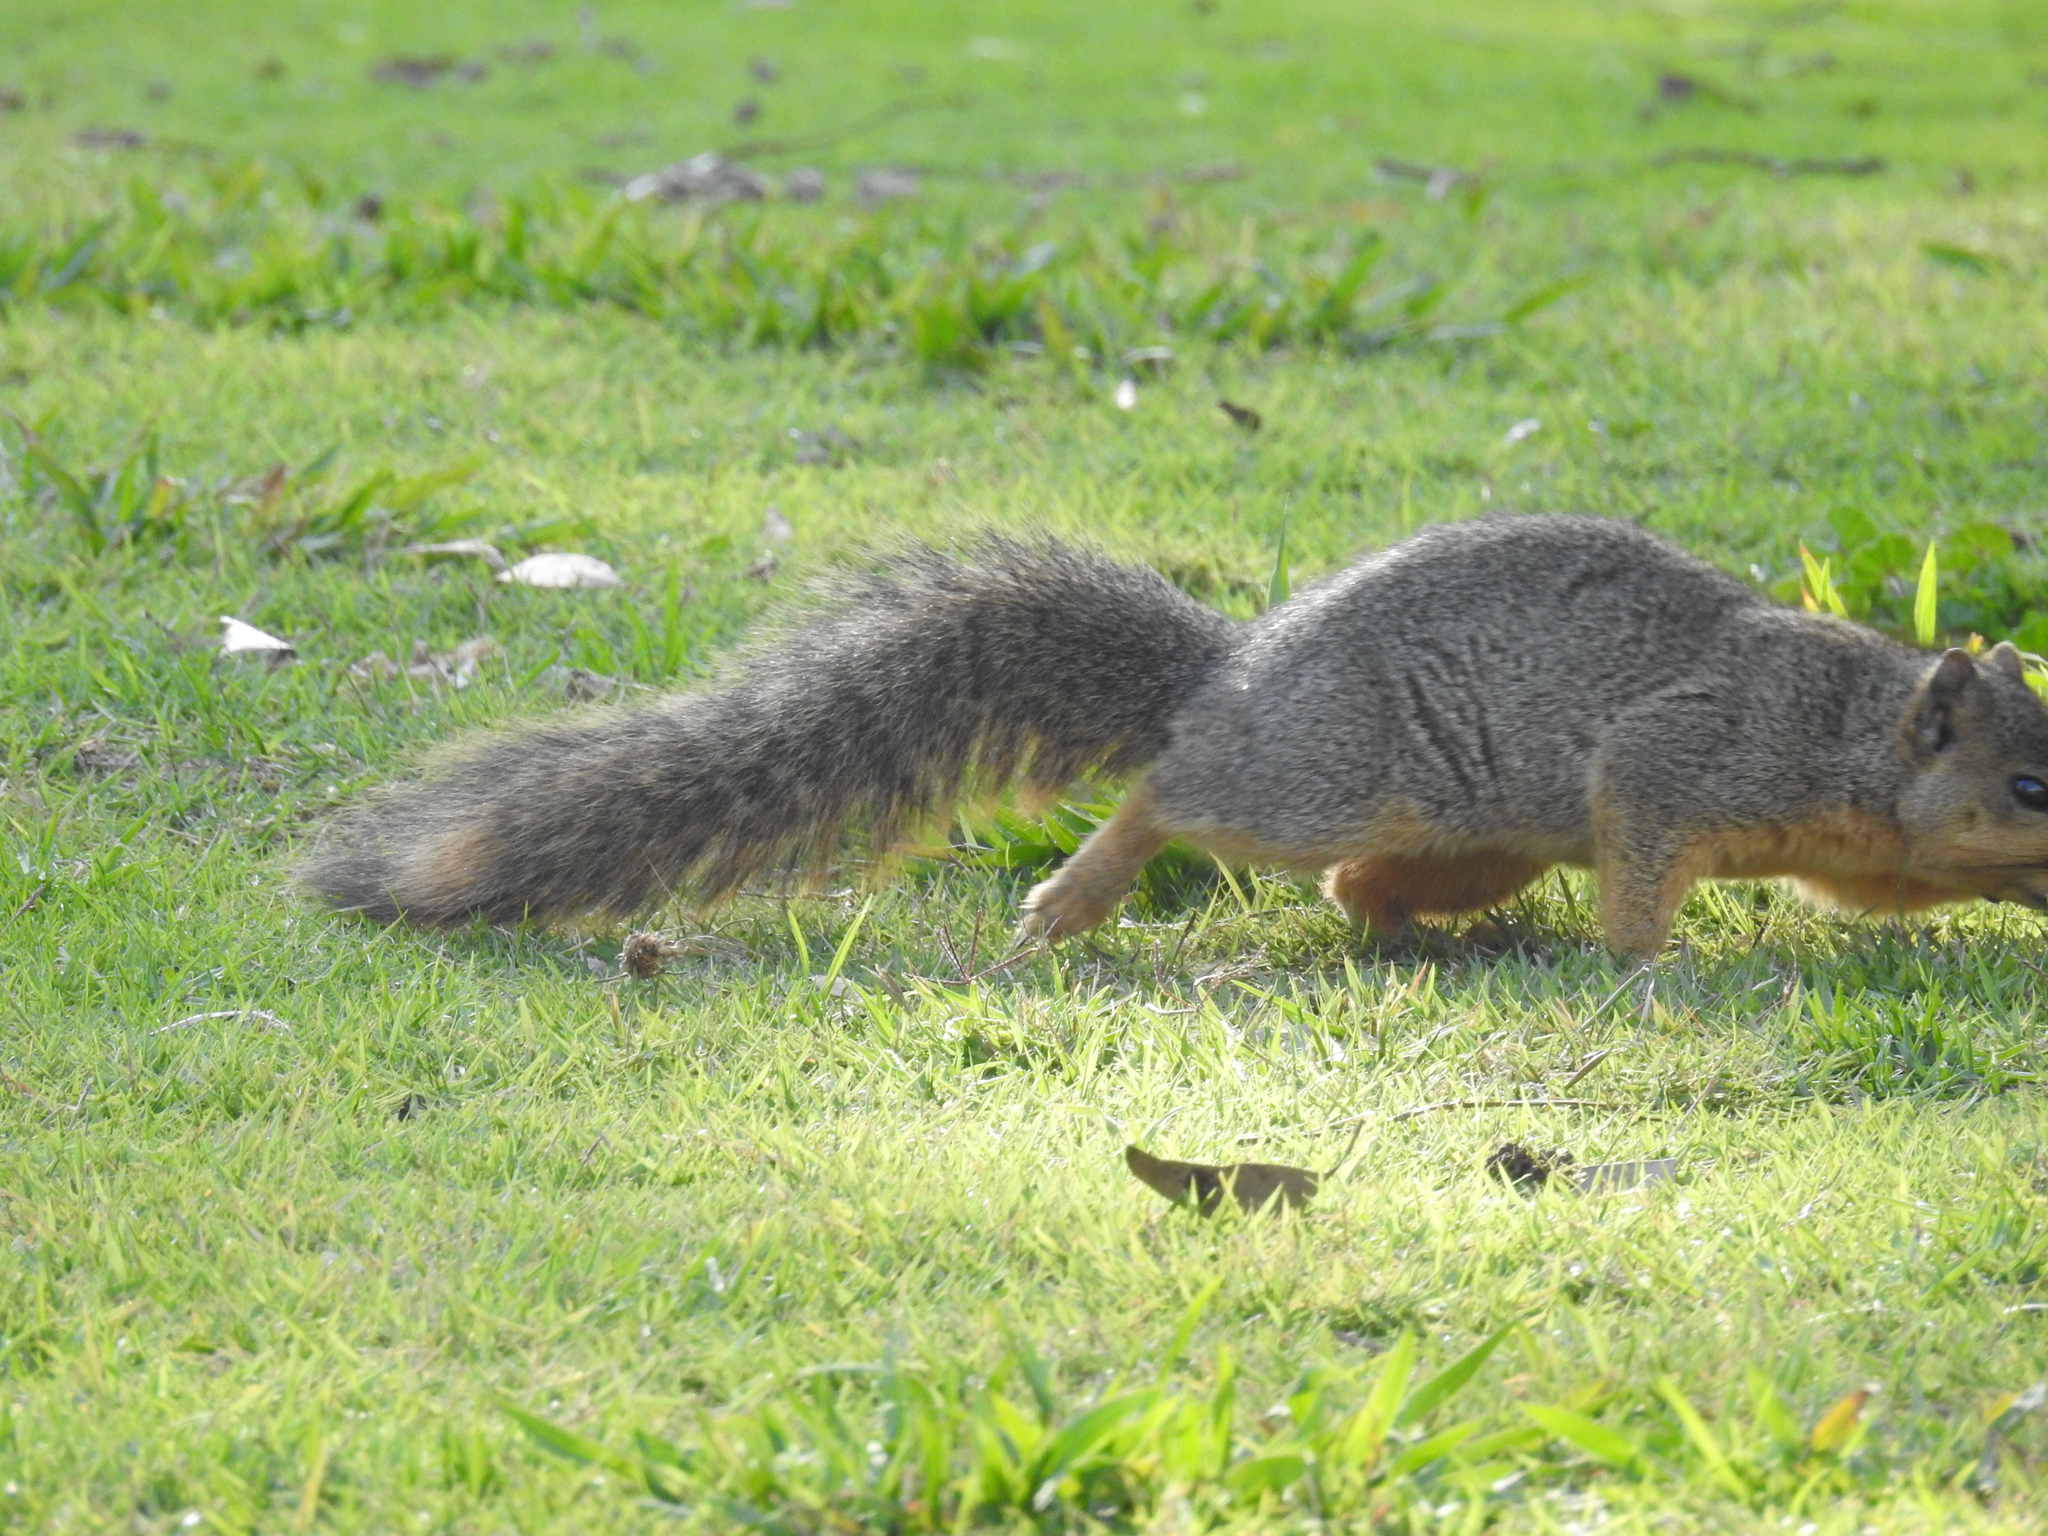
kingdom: Animalia
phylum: Chordata
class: Mammalia
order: Rodentia
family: Sciuridae
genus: Sciurus
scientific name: Sciurus niger
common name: Fox squirrel
